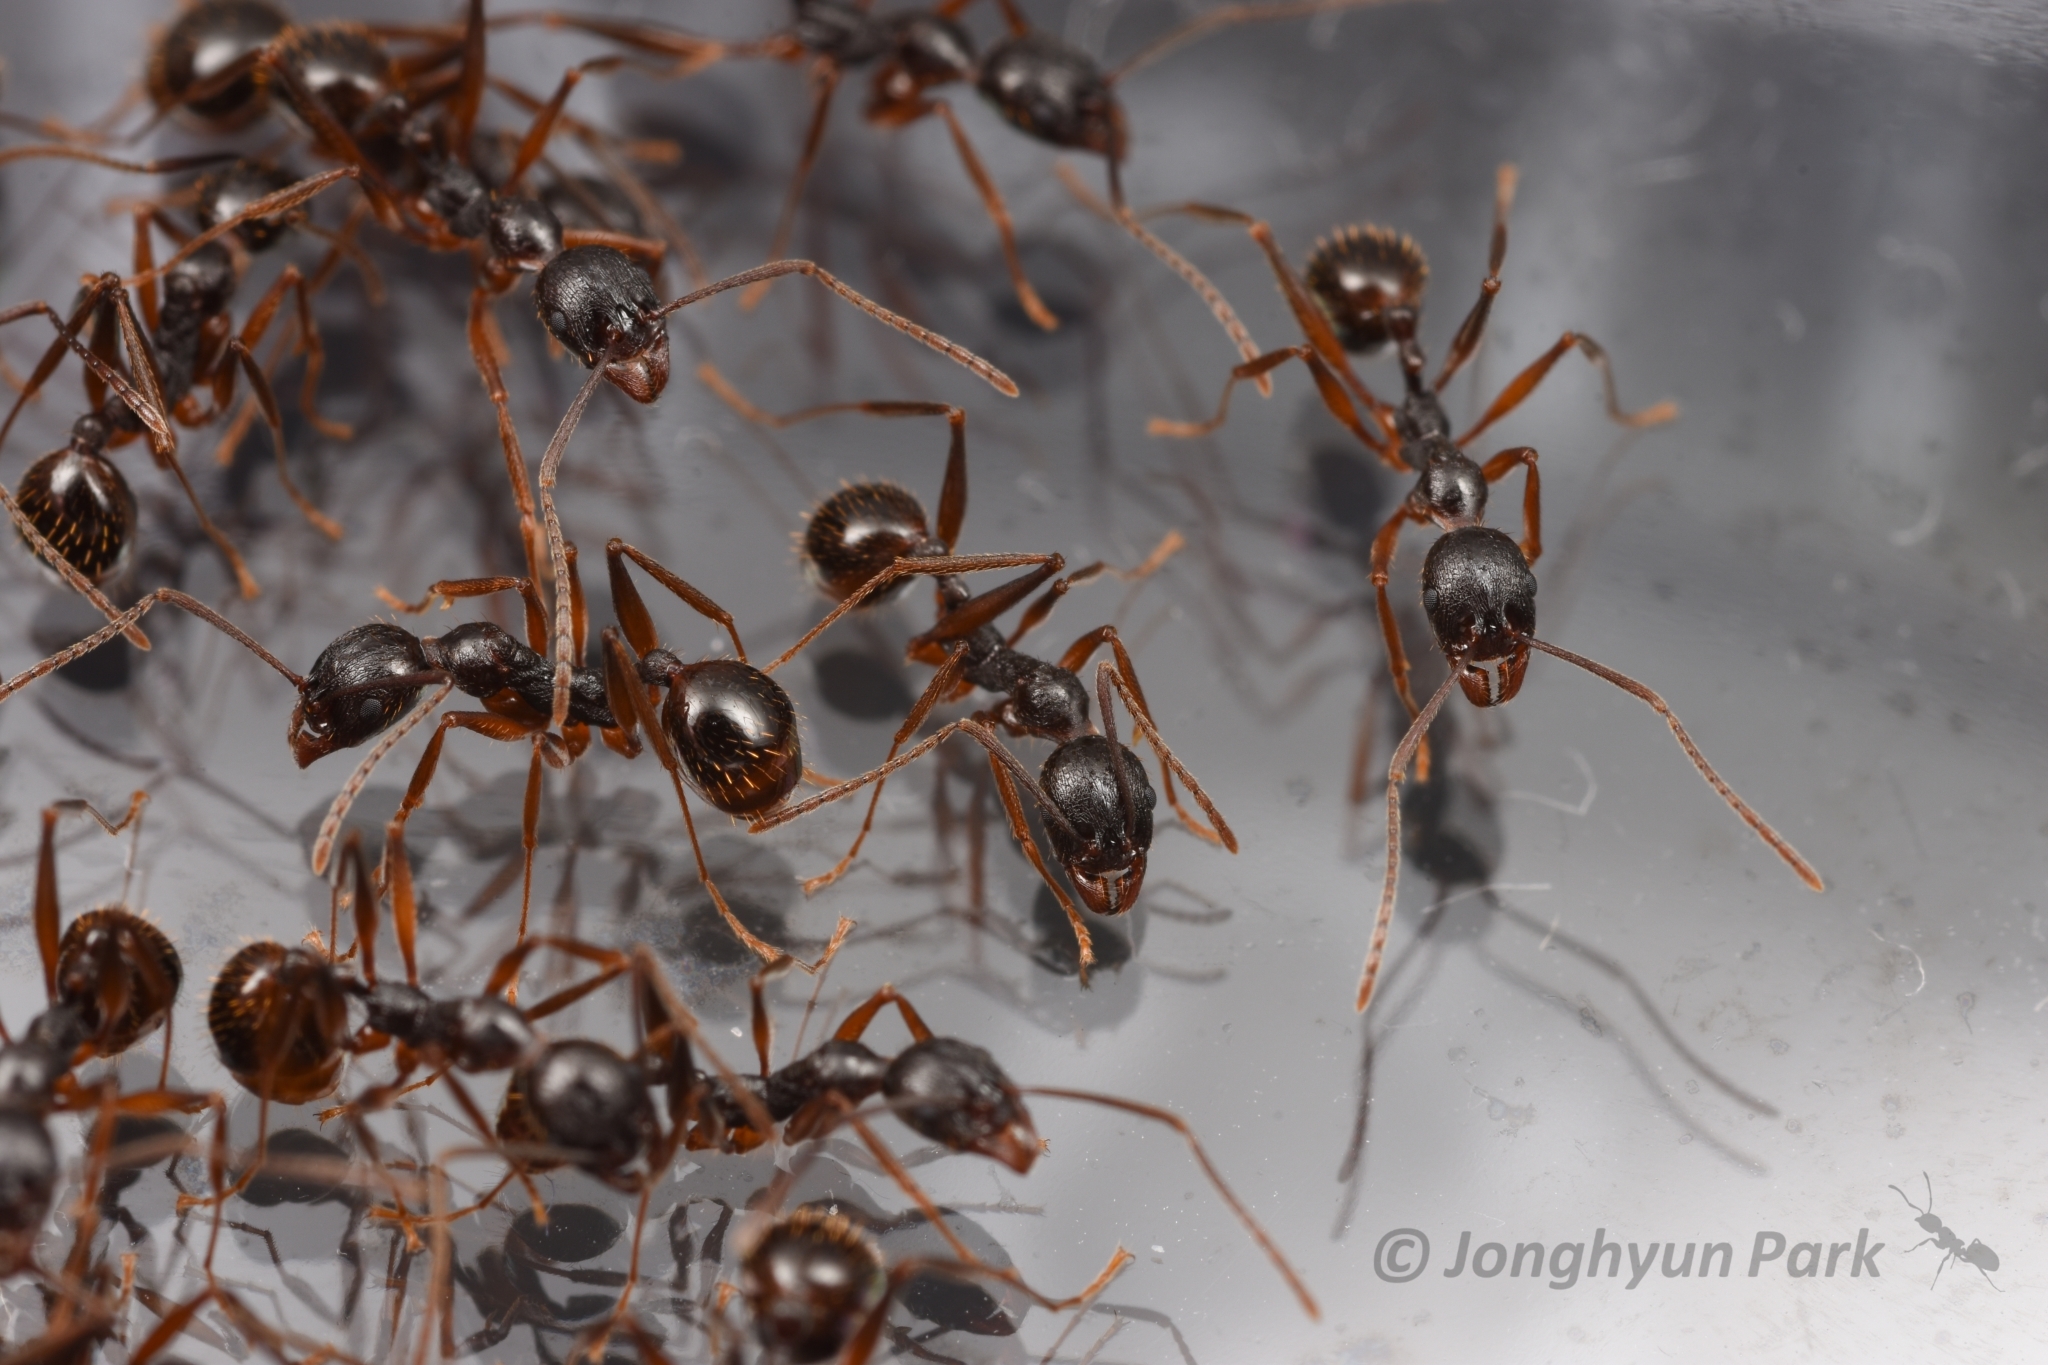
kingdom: Animalia
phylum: Arthropoda
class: Insecta
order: Hymenoptera
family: Formicidae
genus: Aphaenogaster
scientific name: Aphaenogaster famelica
